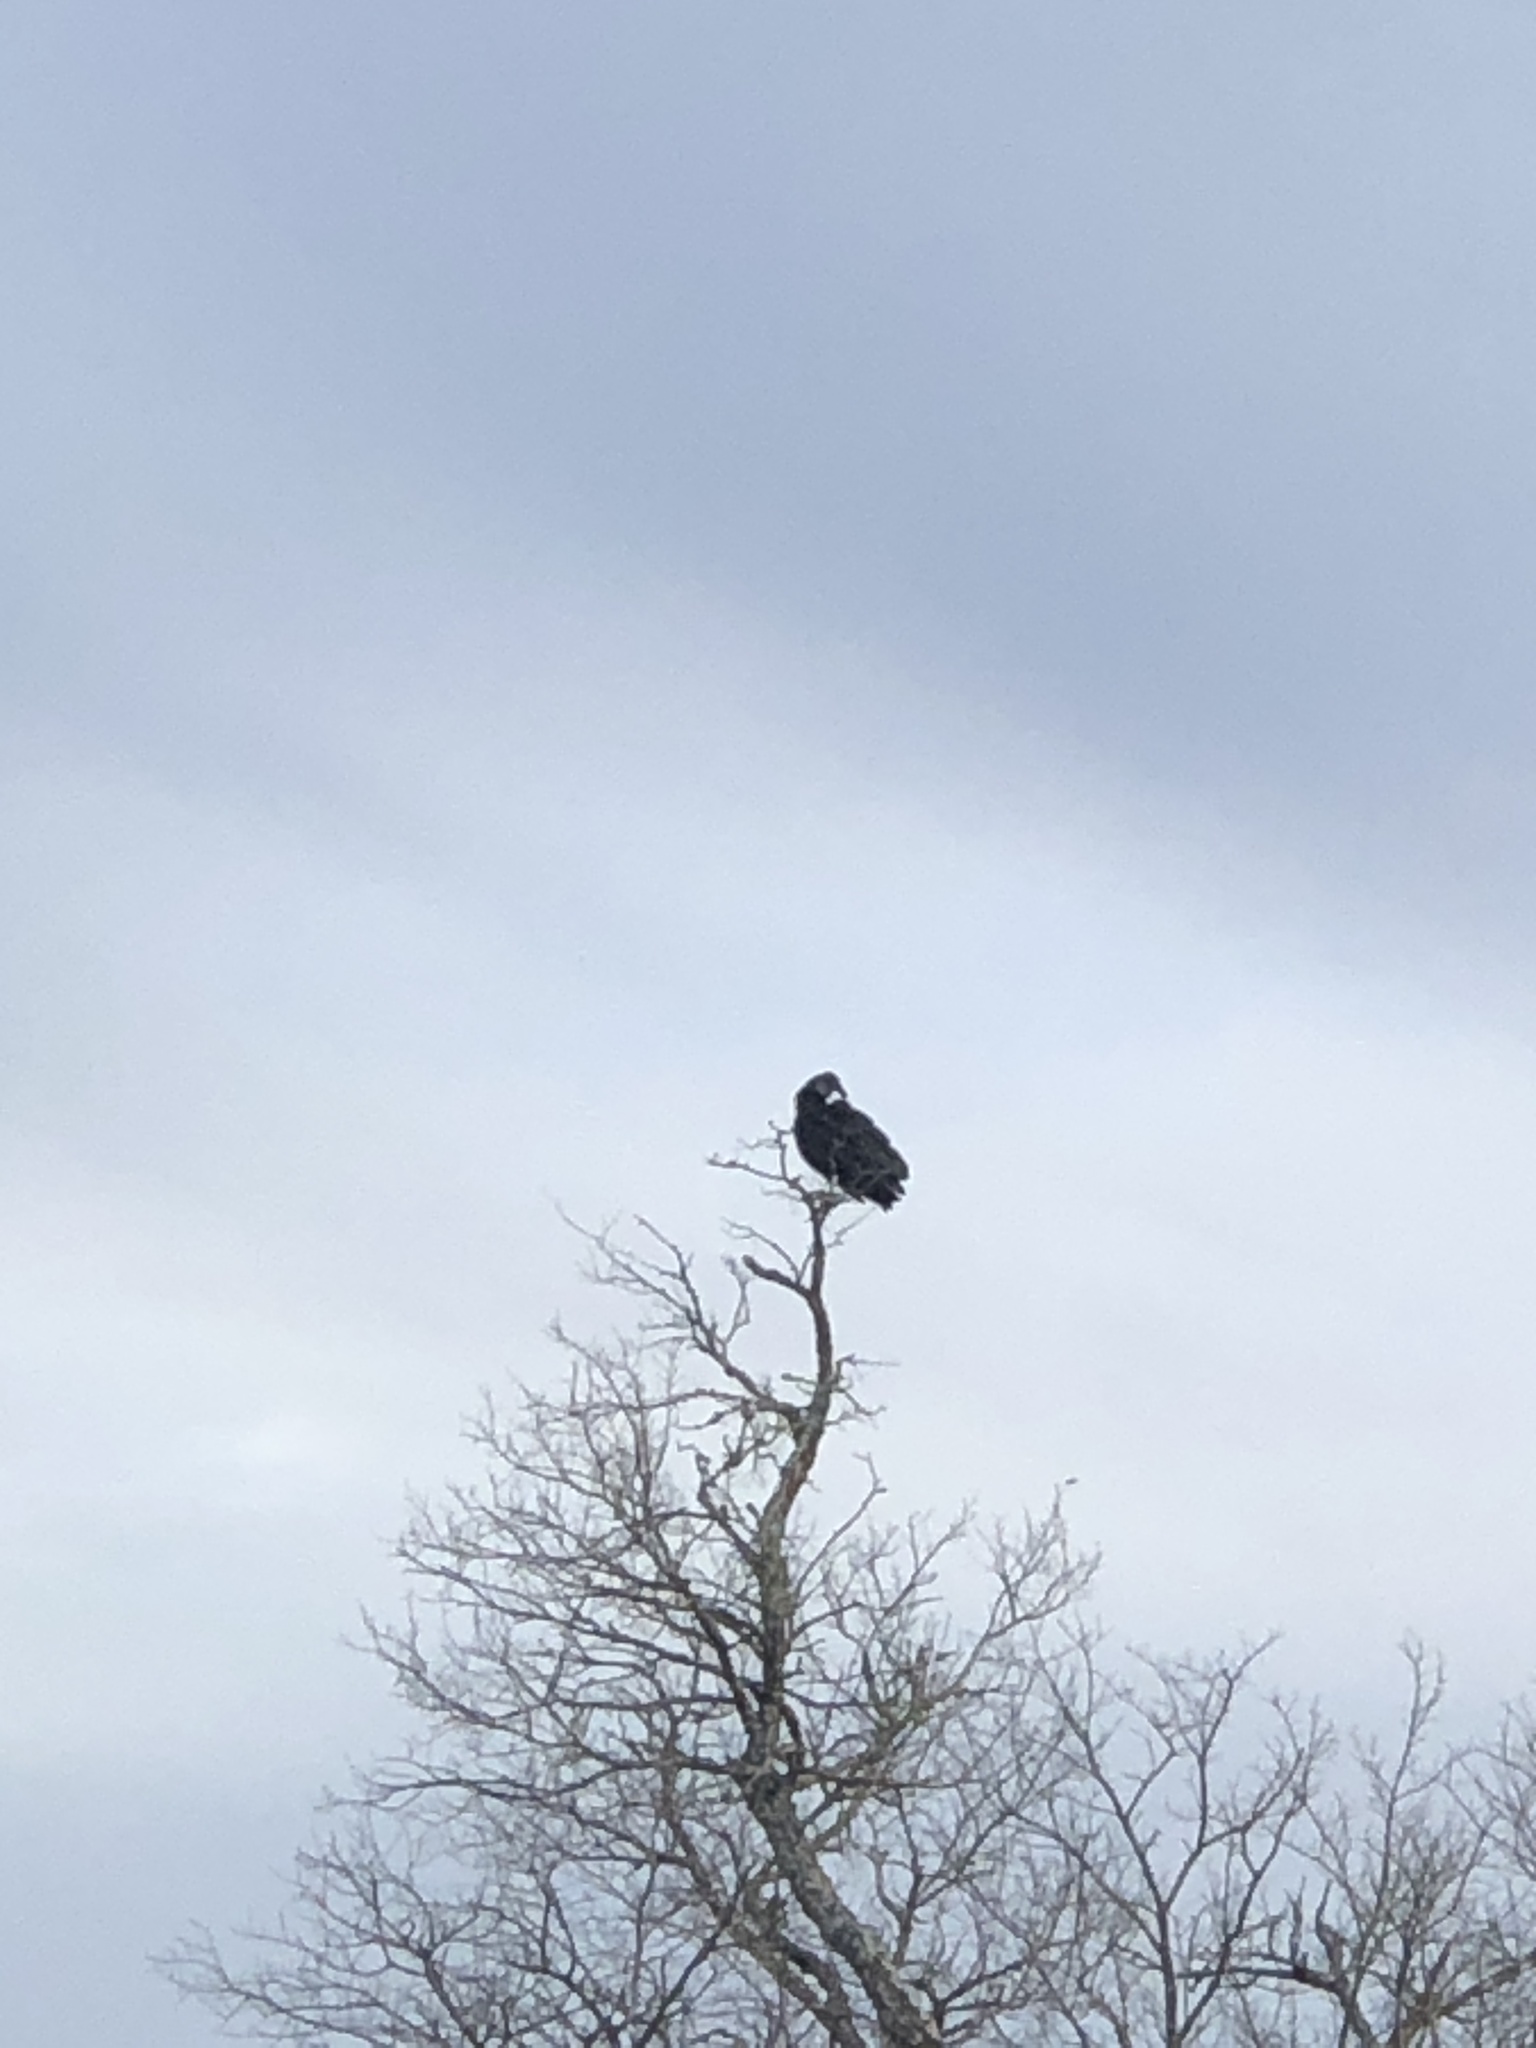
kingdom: Animalia
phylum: Chordata
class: Aves
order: Accipitriformes
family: Cathartidae
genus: Coragyps
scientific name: Coragyps atratus
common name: Black vulture
